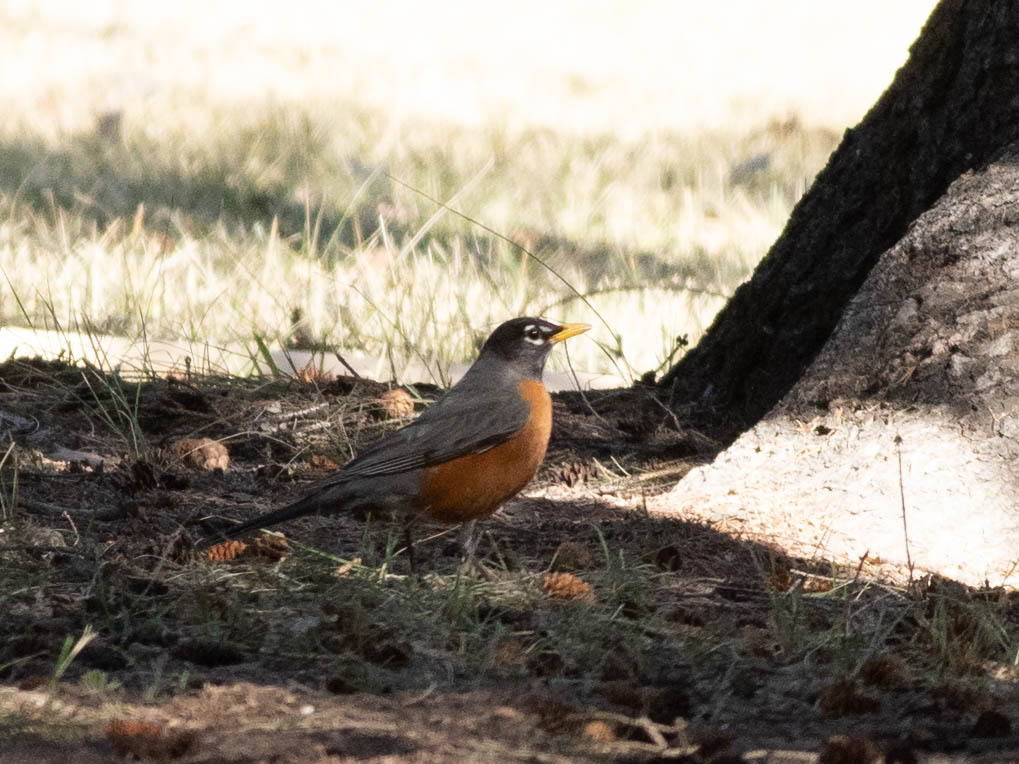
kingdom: Animalia
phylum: Chordata
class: Aves
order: Passeriformes
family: Turdidae
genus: Turdus
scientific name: Turdus migratorius
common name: American robin
